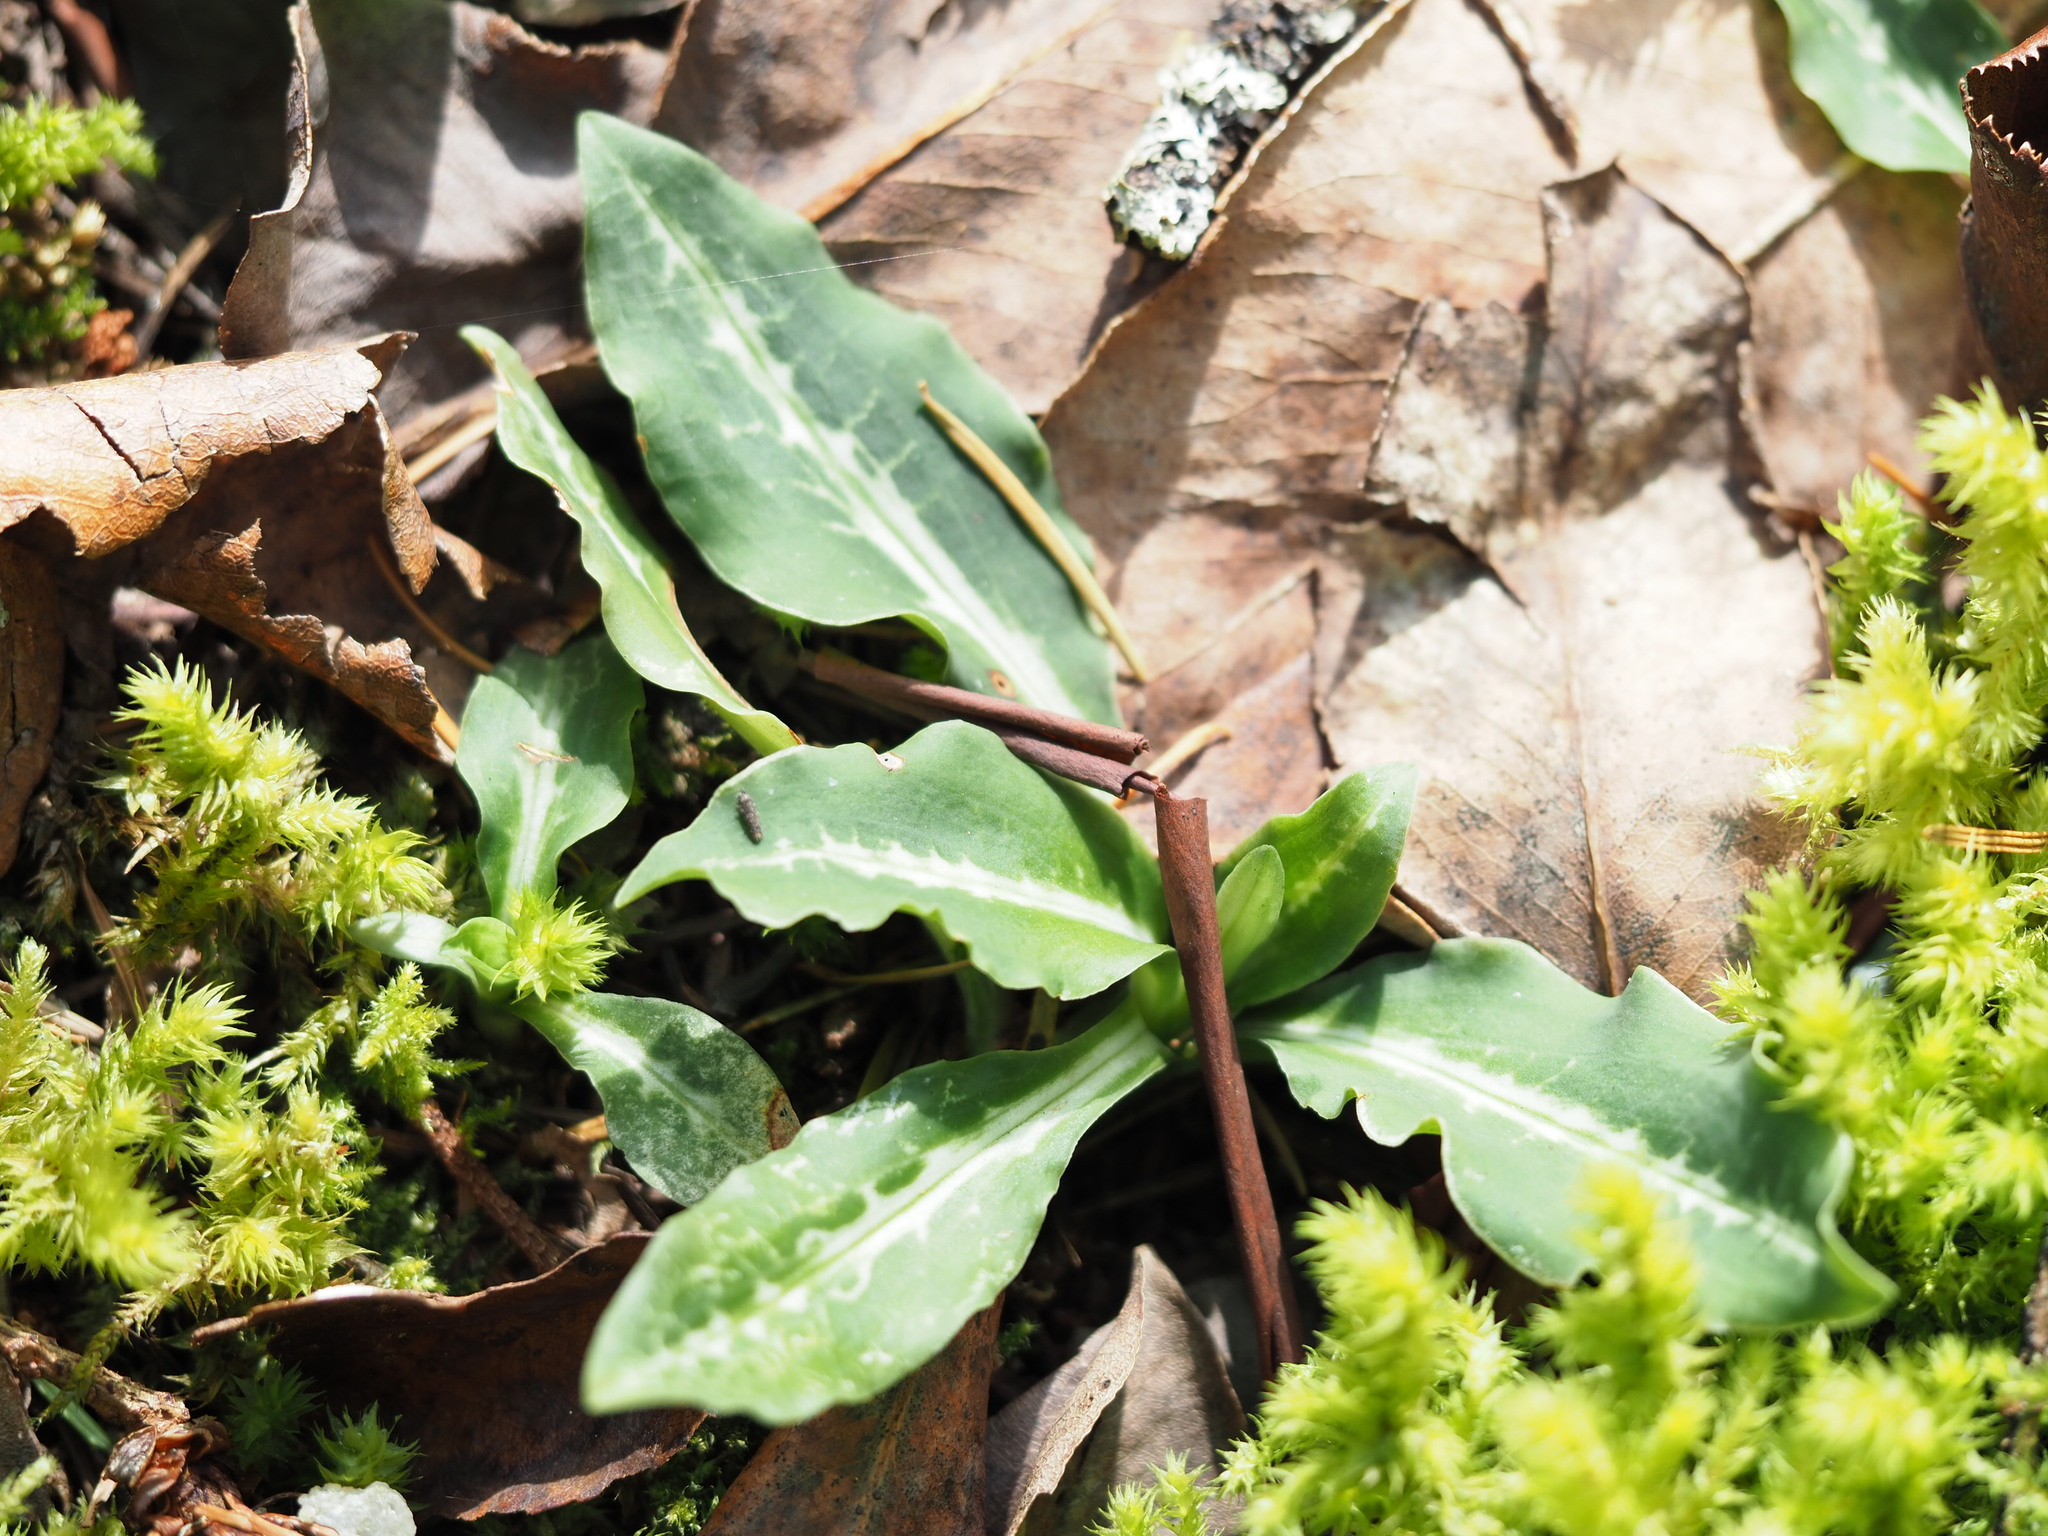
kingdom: Plantae
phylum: Tracheophyta
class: Liliopsida
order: Asparagales
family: Orchidaceae
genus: Goodyera
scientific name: Goodyera oblongifolia
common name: Giant rattlesnake-plantain
